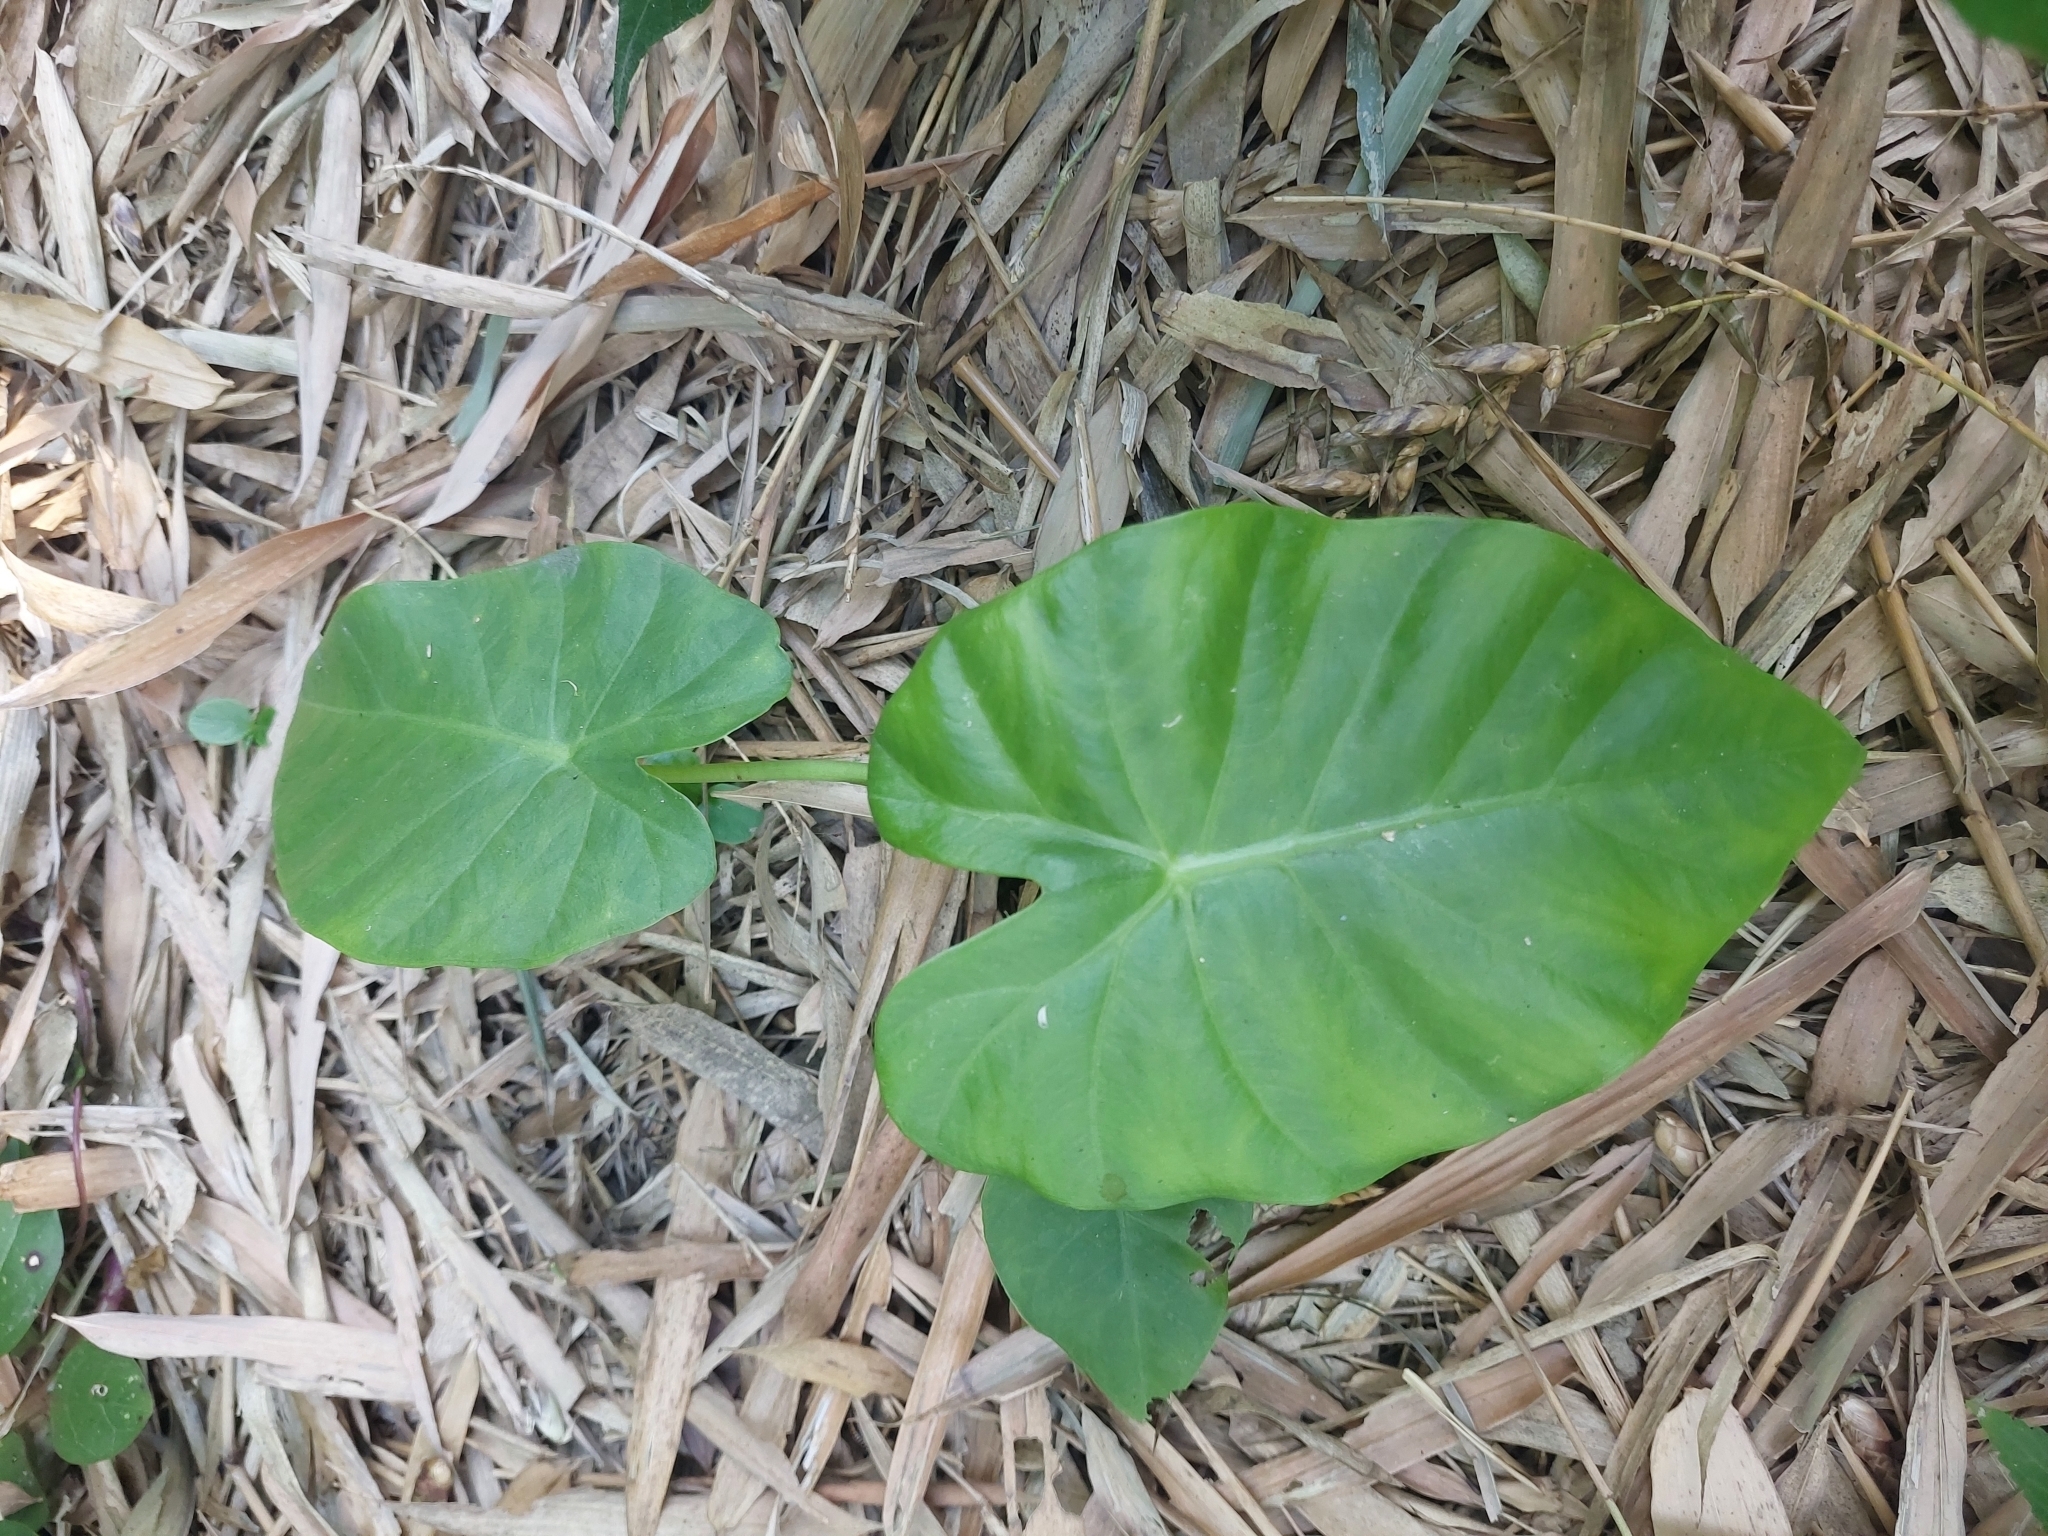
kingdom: Plantae
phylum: Tracheophyta
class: Liliopsida
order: Alismatales
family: Araceae
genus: Alocasia
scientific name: Alocasia odora
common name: Asian taro
